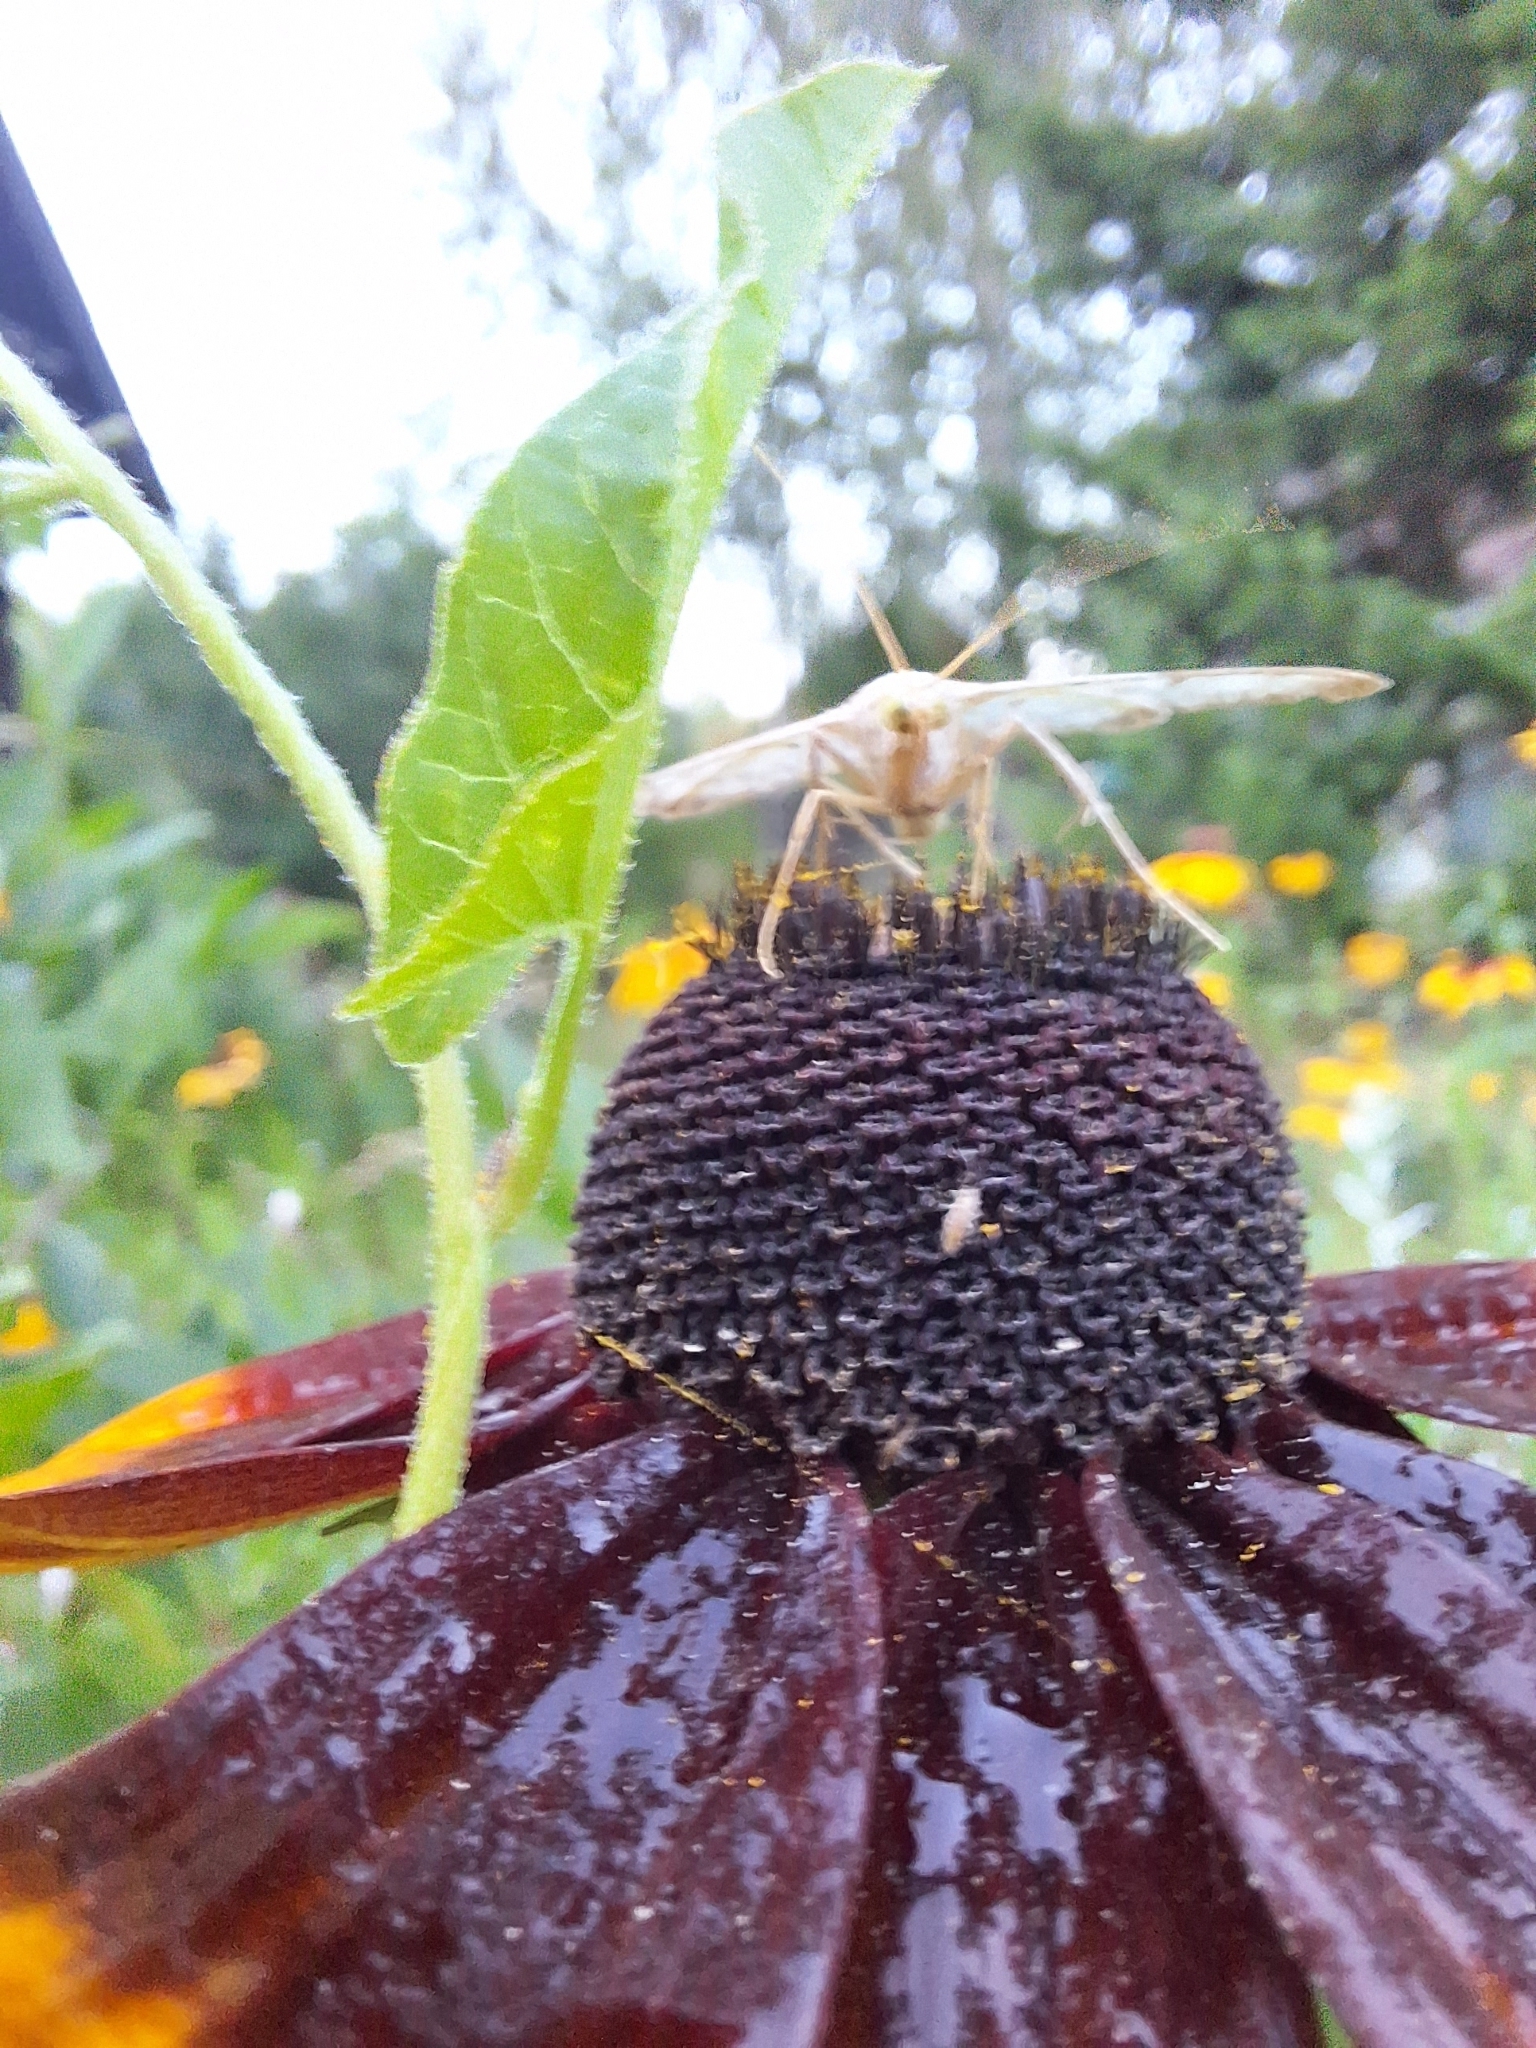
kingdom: Animalia
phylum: Arthropoda
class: Insecta
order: Lepidoptera
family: Crambidae
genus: Patania
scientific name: Patania ruralis
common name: Mother of pearl
